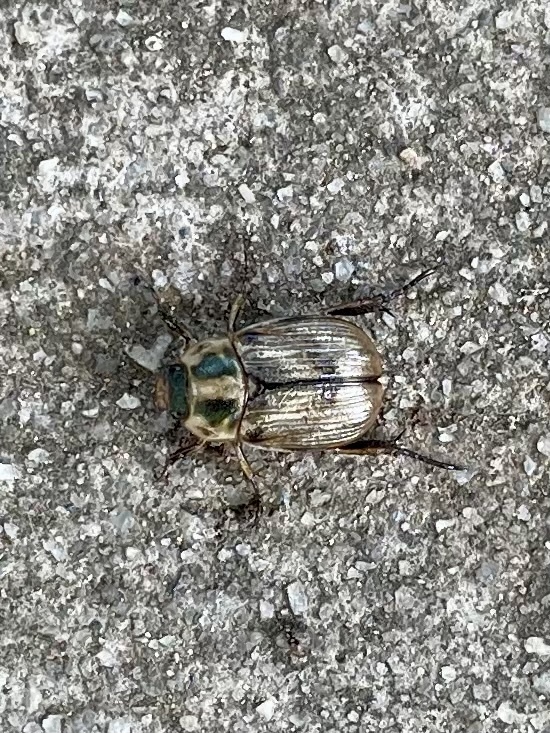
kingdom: Animalia
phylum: Arthropoda
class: Insecta
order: Coleoptera
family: Scarabaeidae
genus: Exomala
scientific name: Exomala orientalis
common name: Oriental beetle
